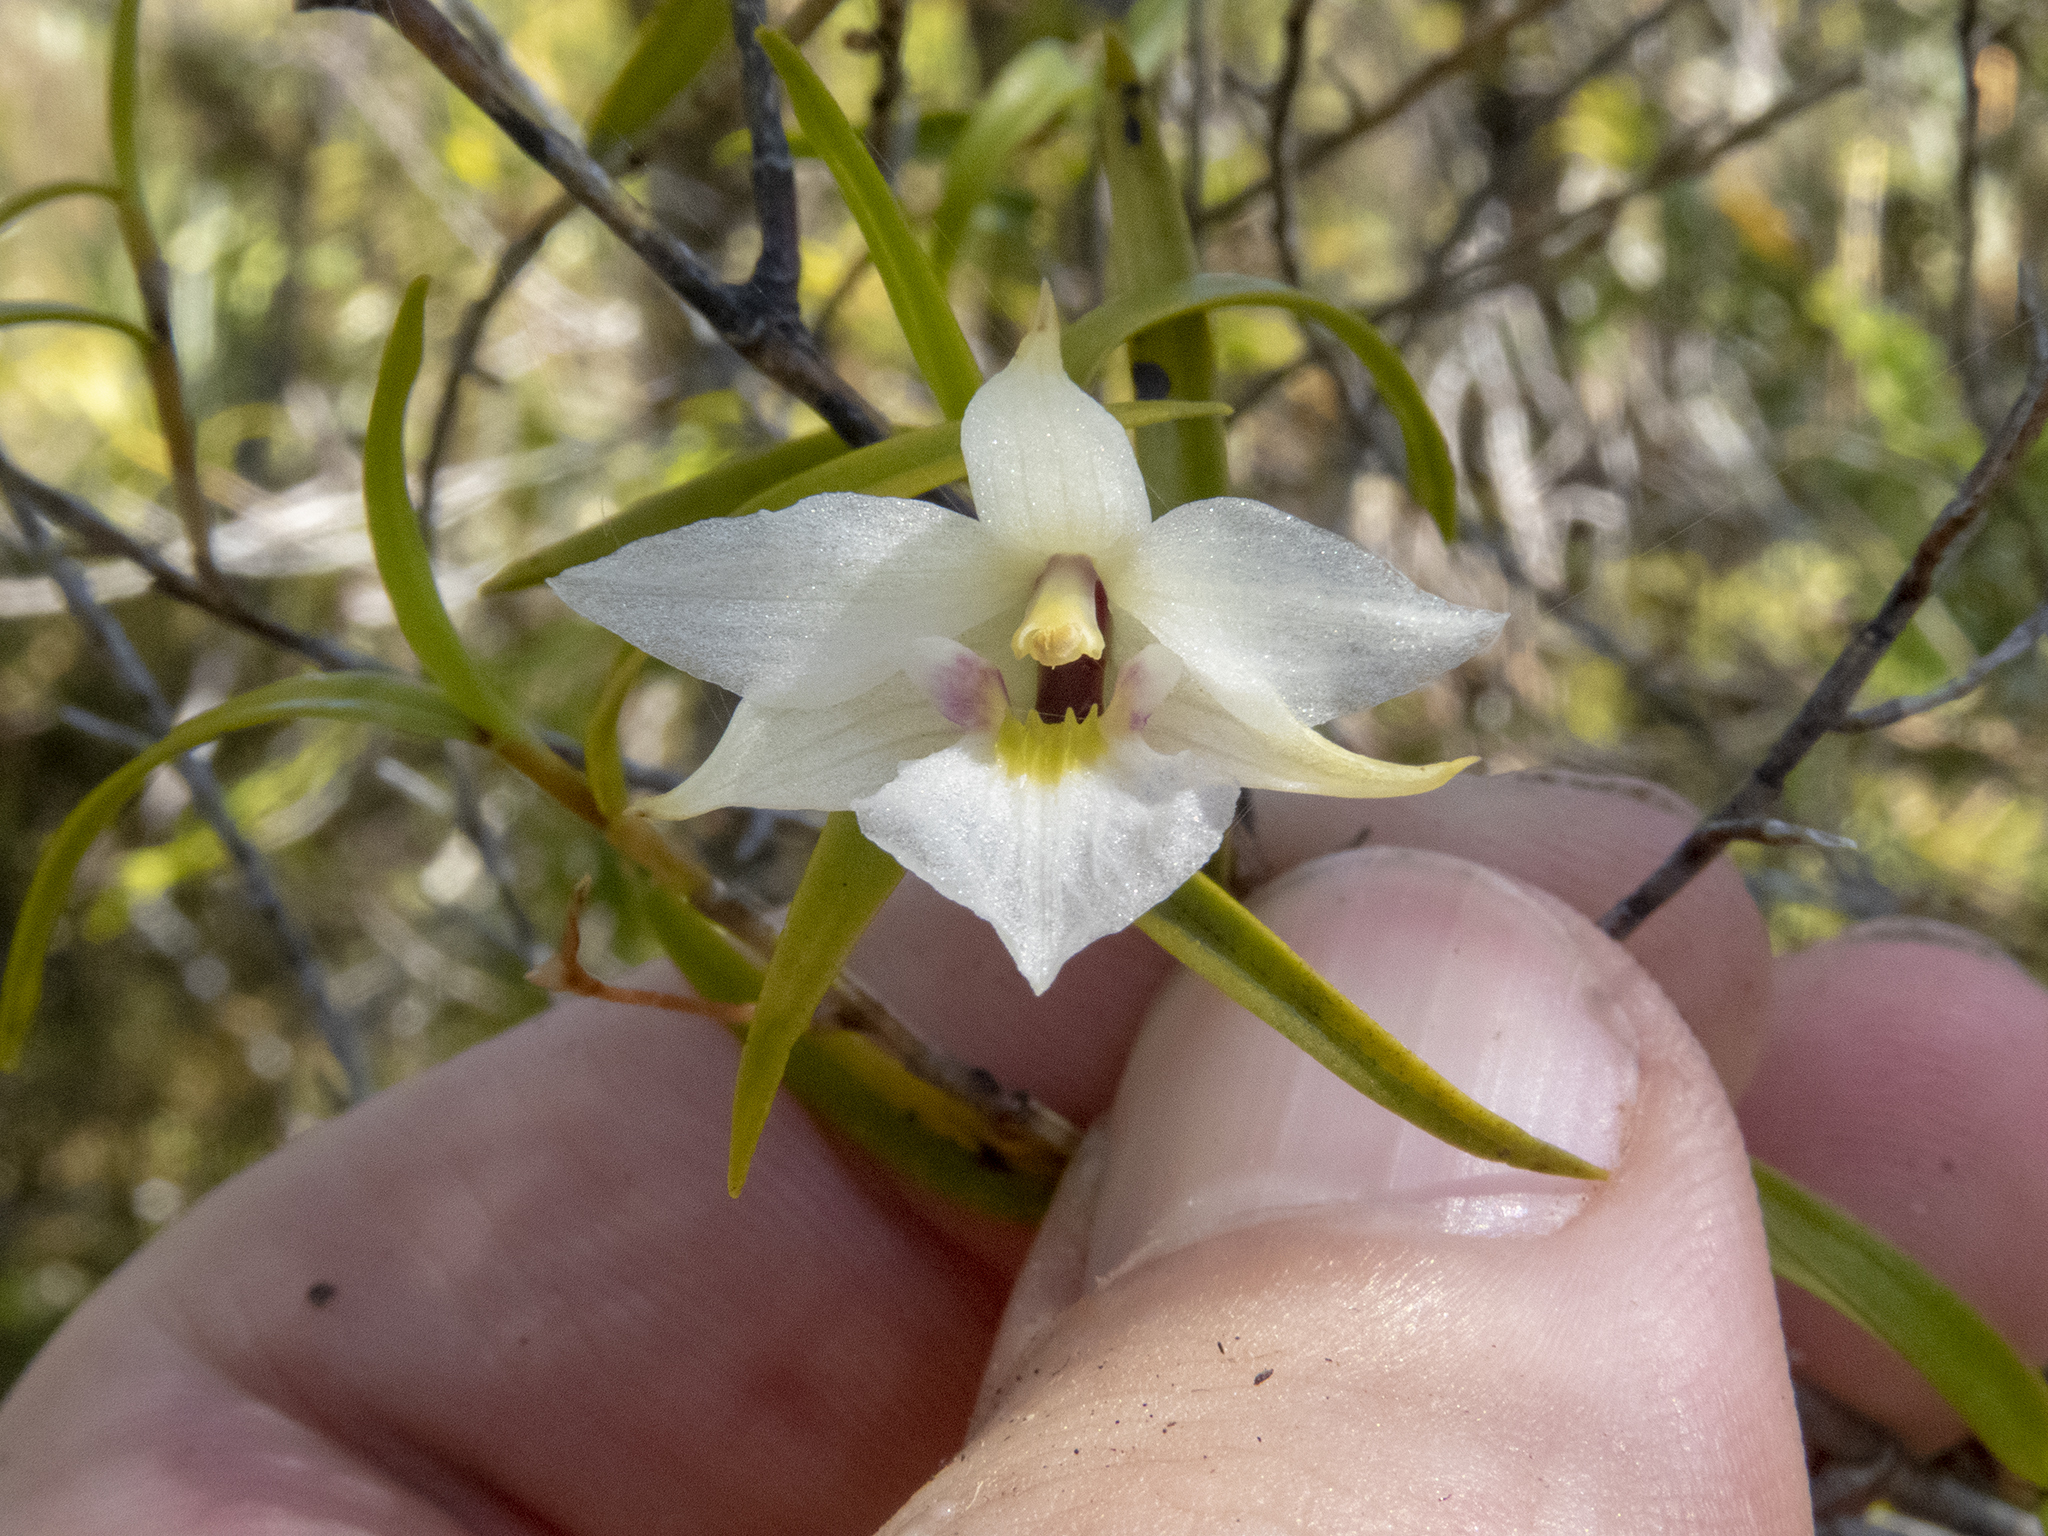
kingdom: Plantae
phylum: Tracheophyta
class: Liliopsida
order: Asparagales
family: Orchidaceae
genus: Dendrobium
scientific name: Dendrobium cunninghamii
